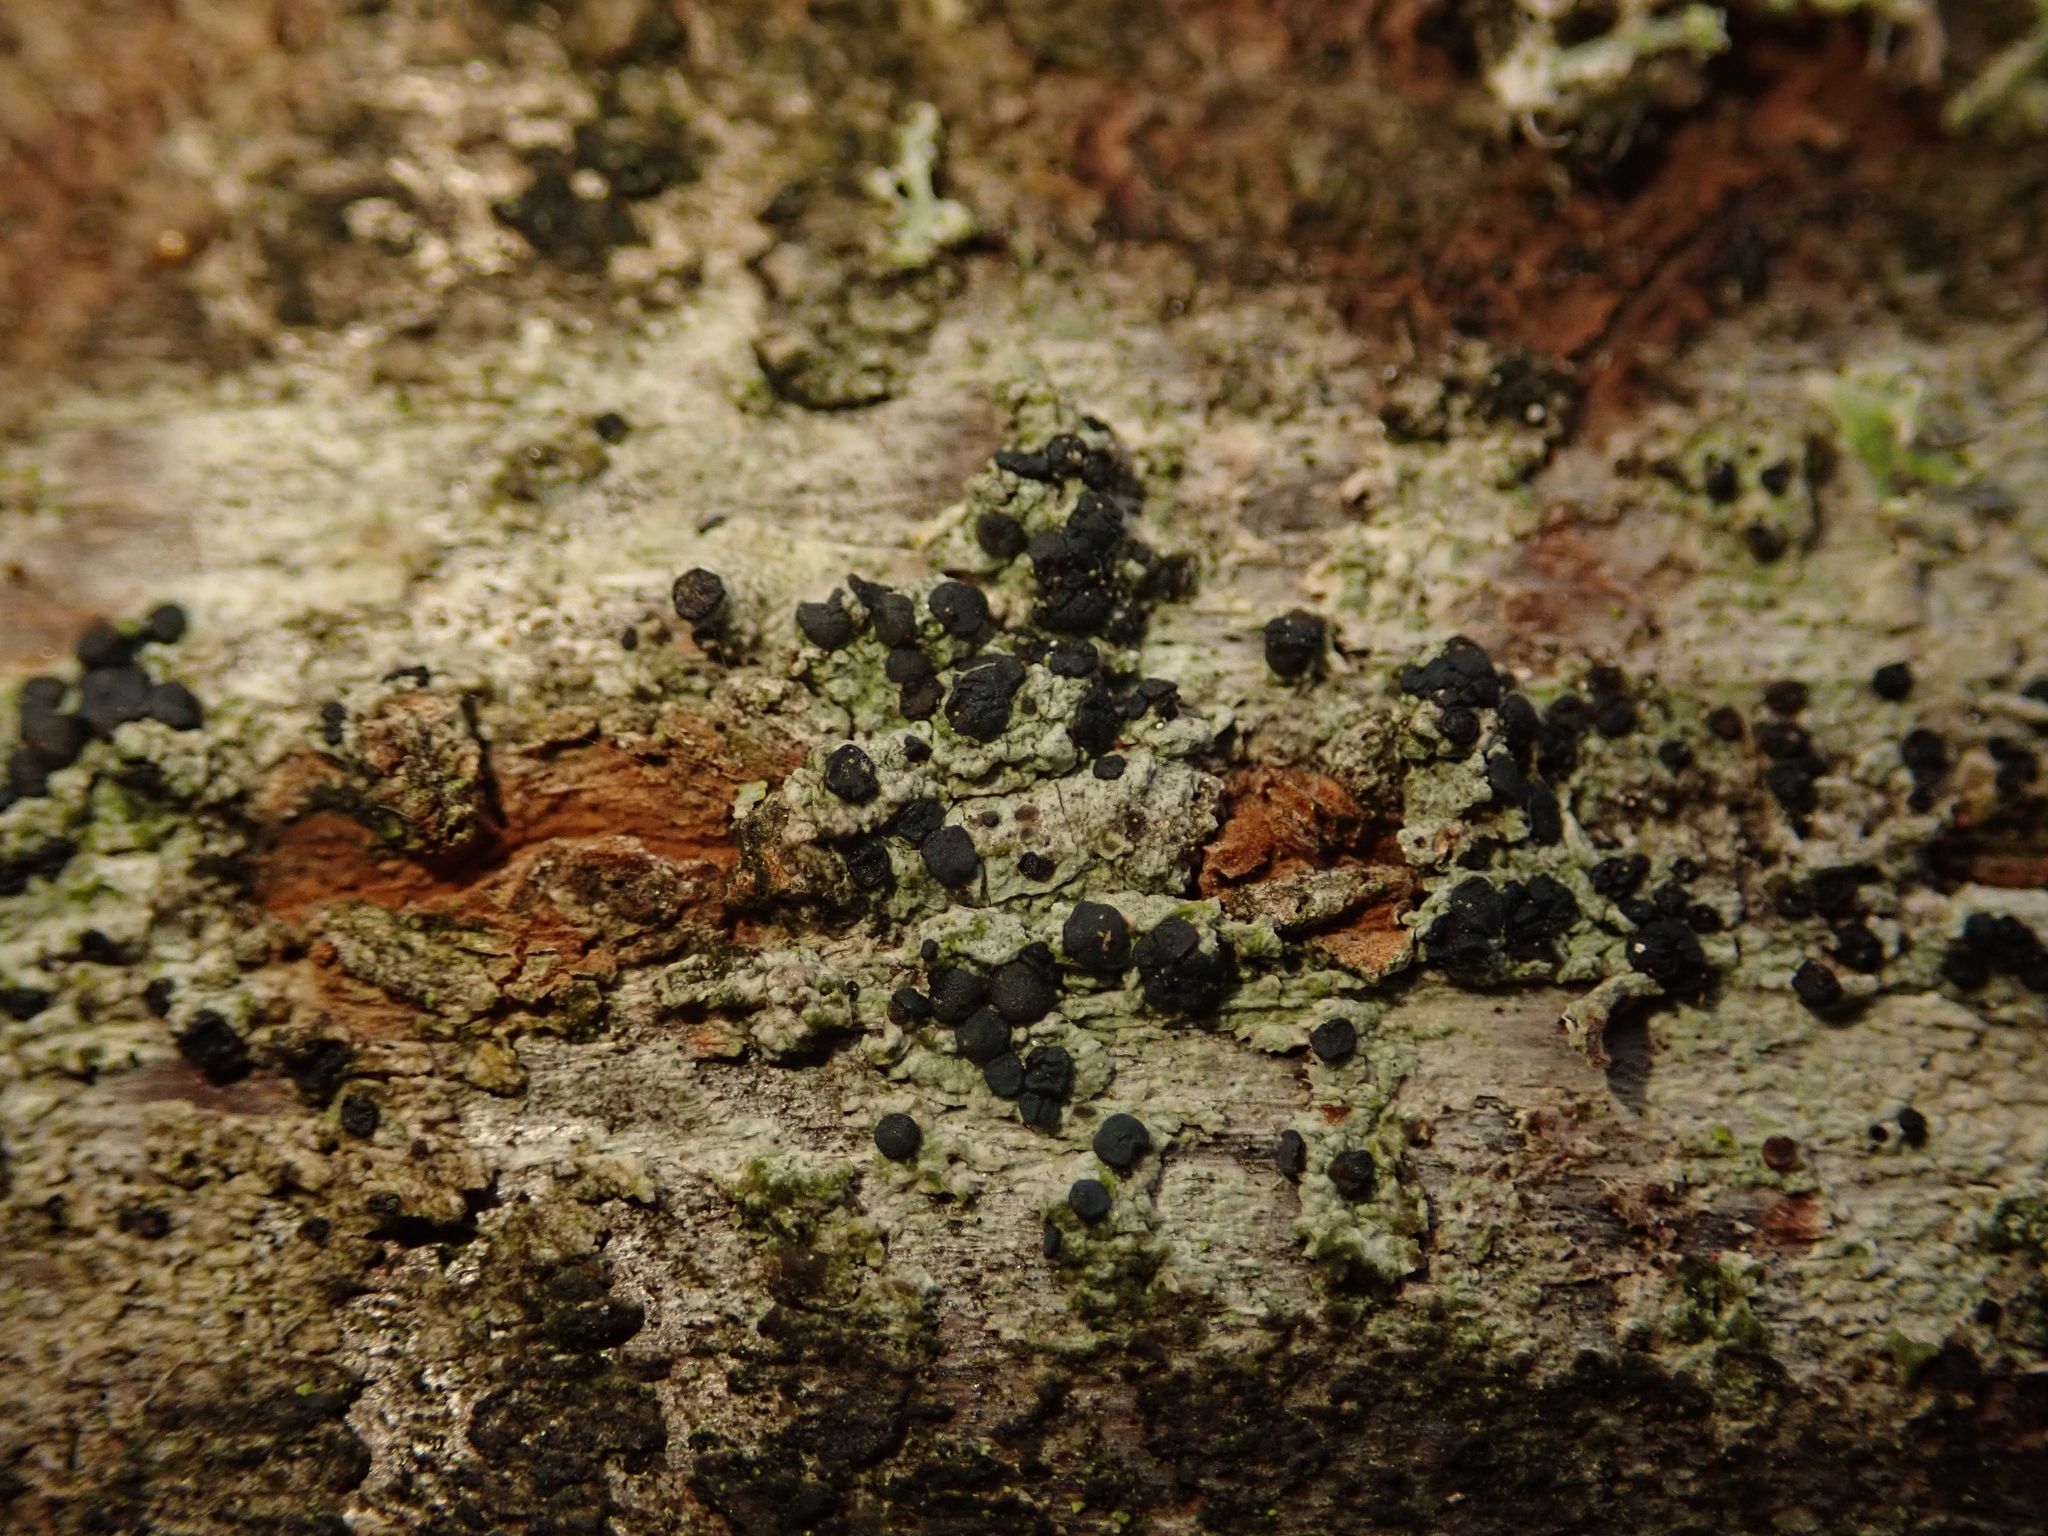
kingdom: Fungi
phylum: Ascomycota
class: Lecanoromycetes
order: Lecanorales
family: Lecanoraceae
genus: Lecidella
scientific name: Lecidella elaeochroma
